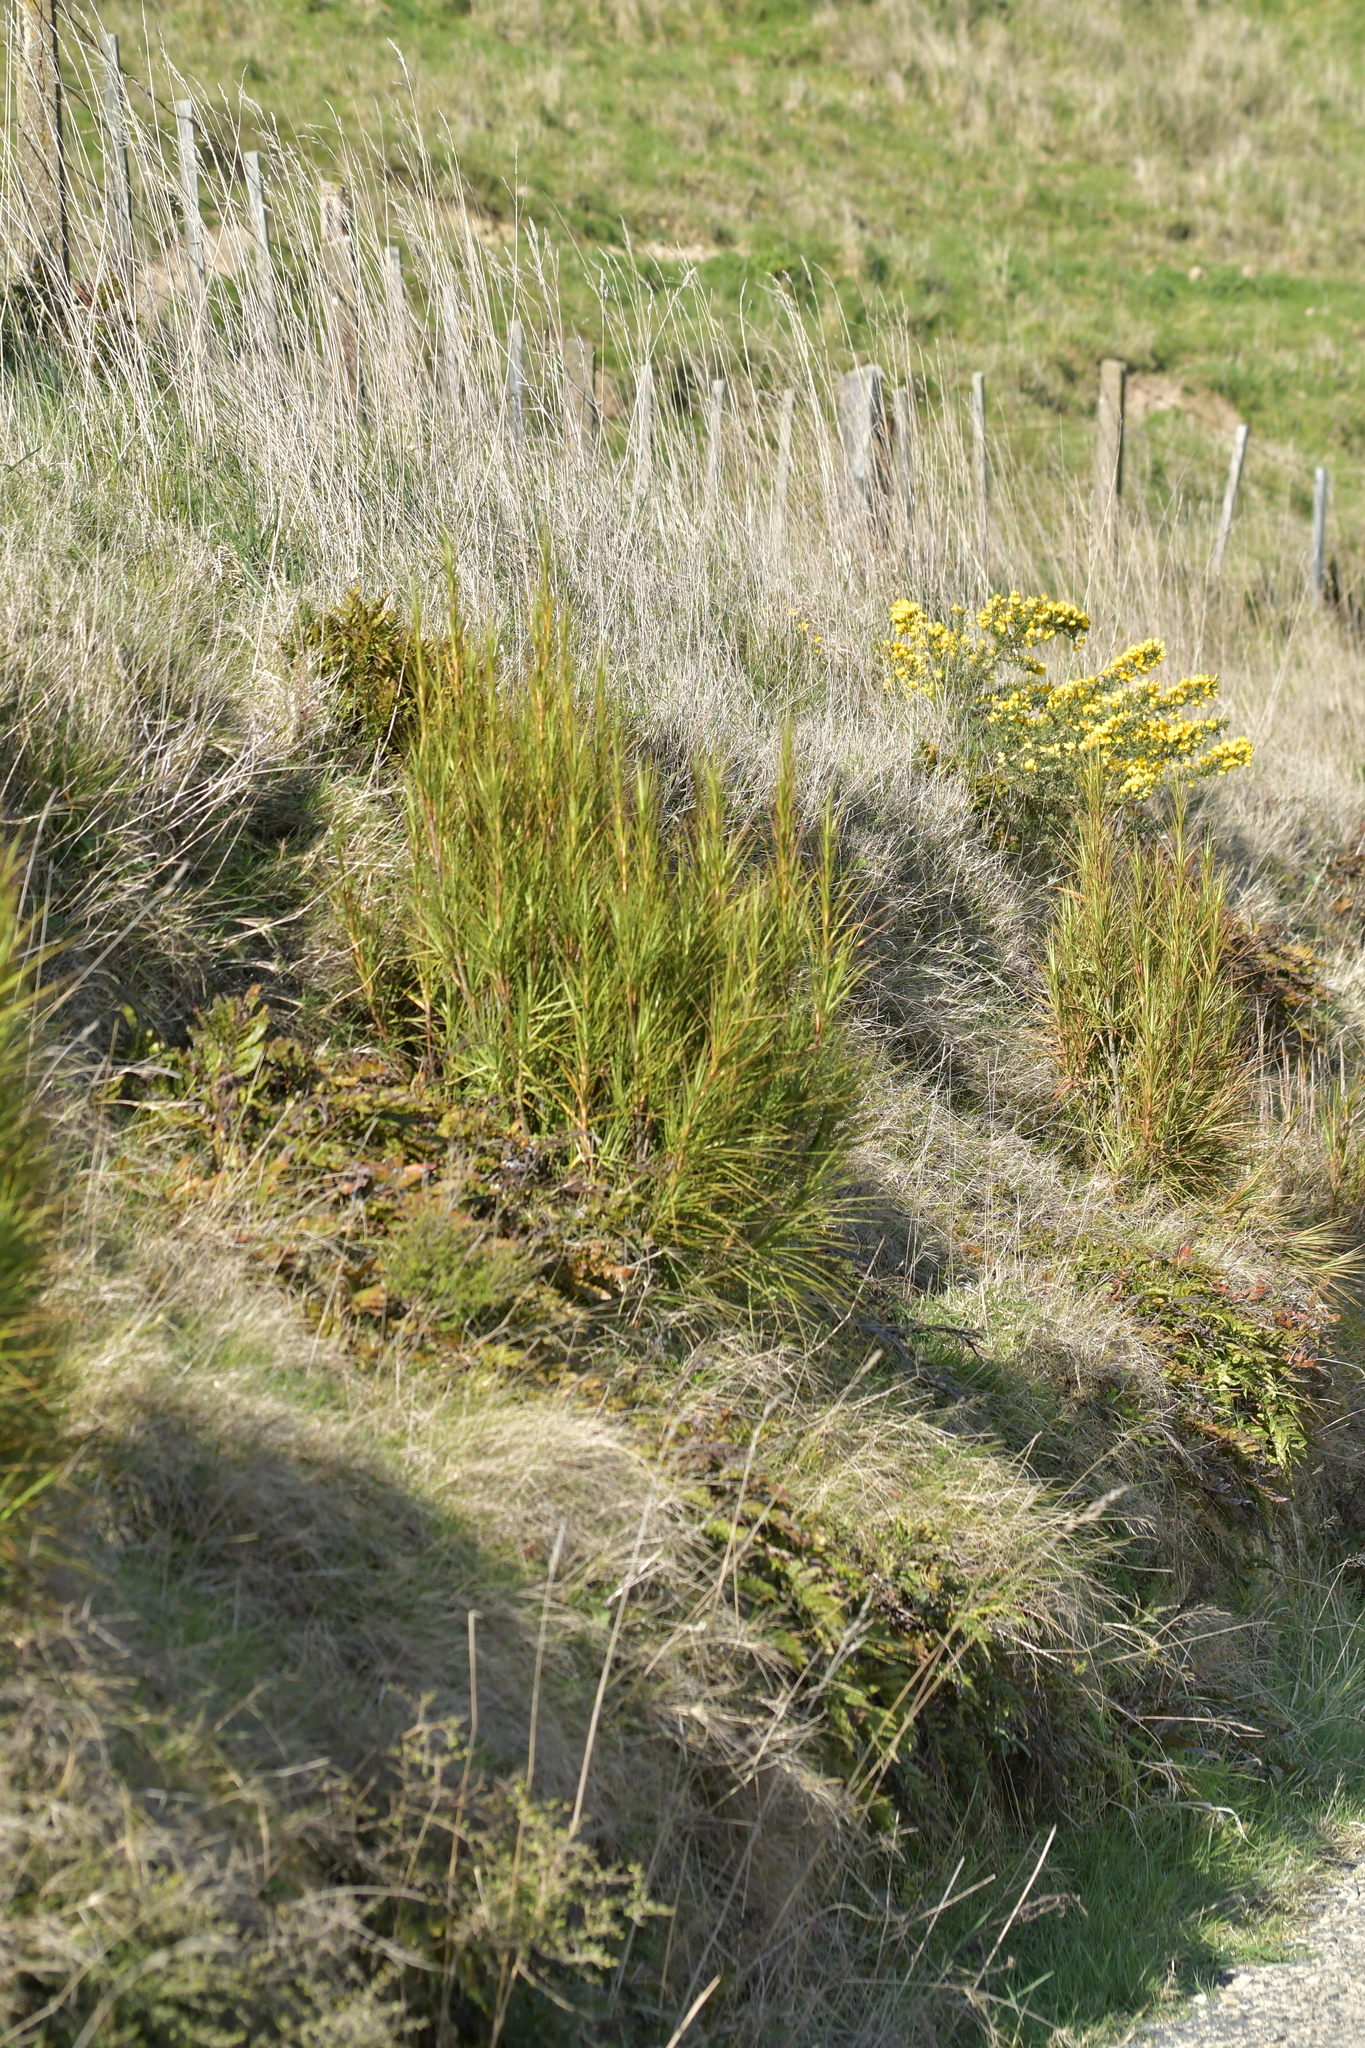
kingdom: Plantae
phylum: Tracheophyta
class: Magnoliopsida
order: Ericales
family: Ericaceae
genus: Dracophyllum
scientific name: Dracophyllum longifolium
